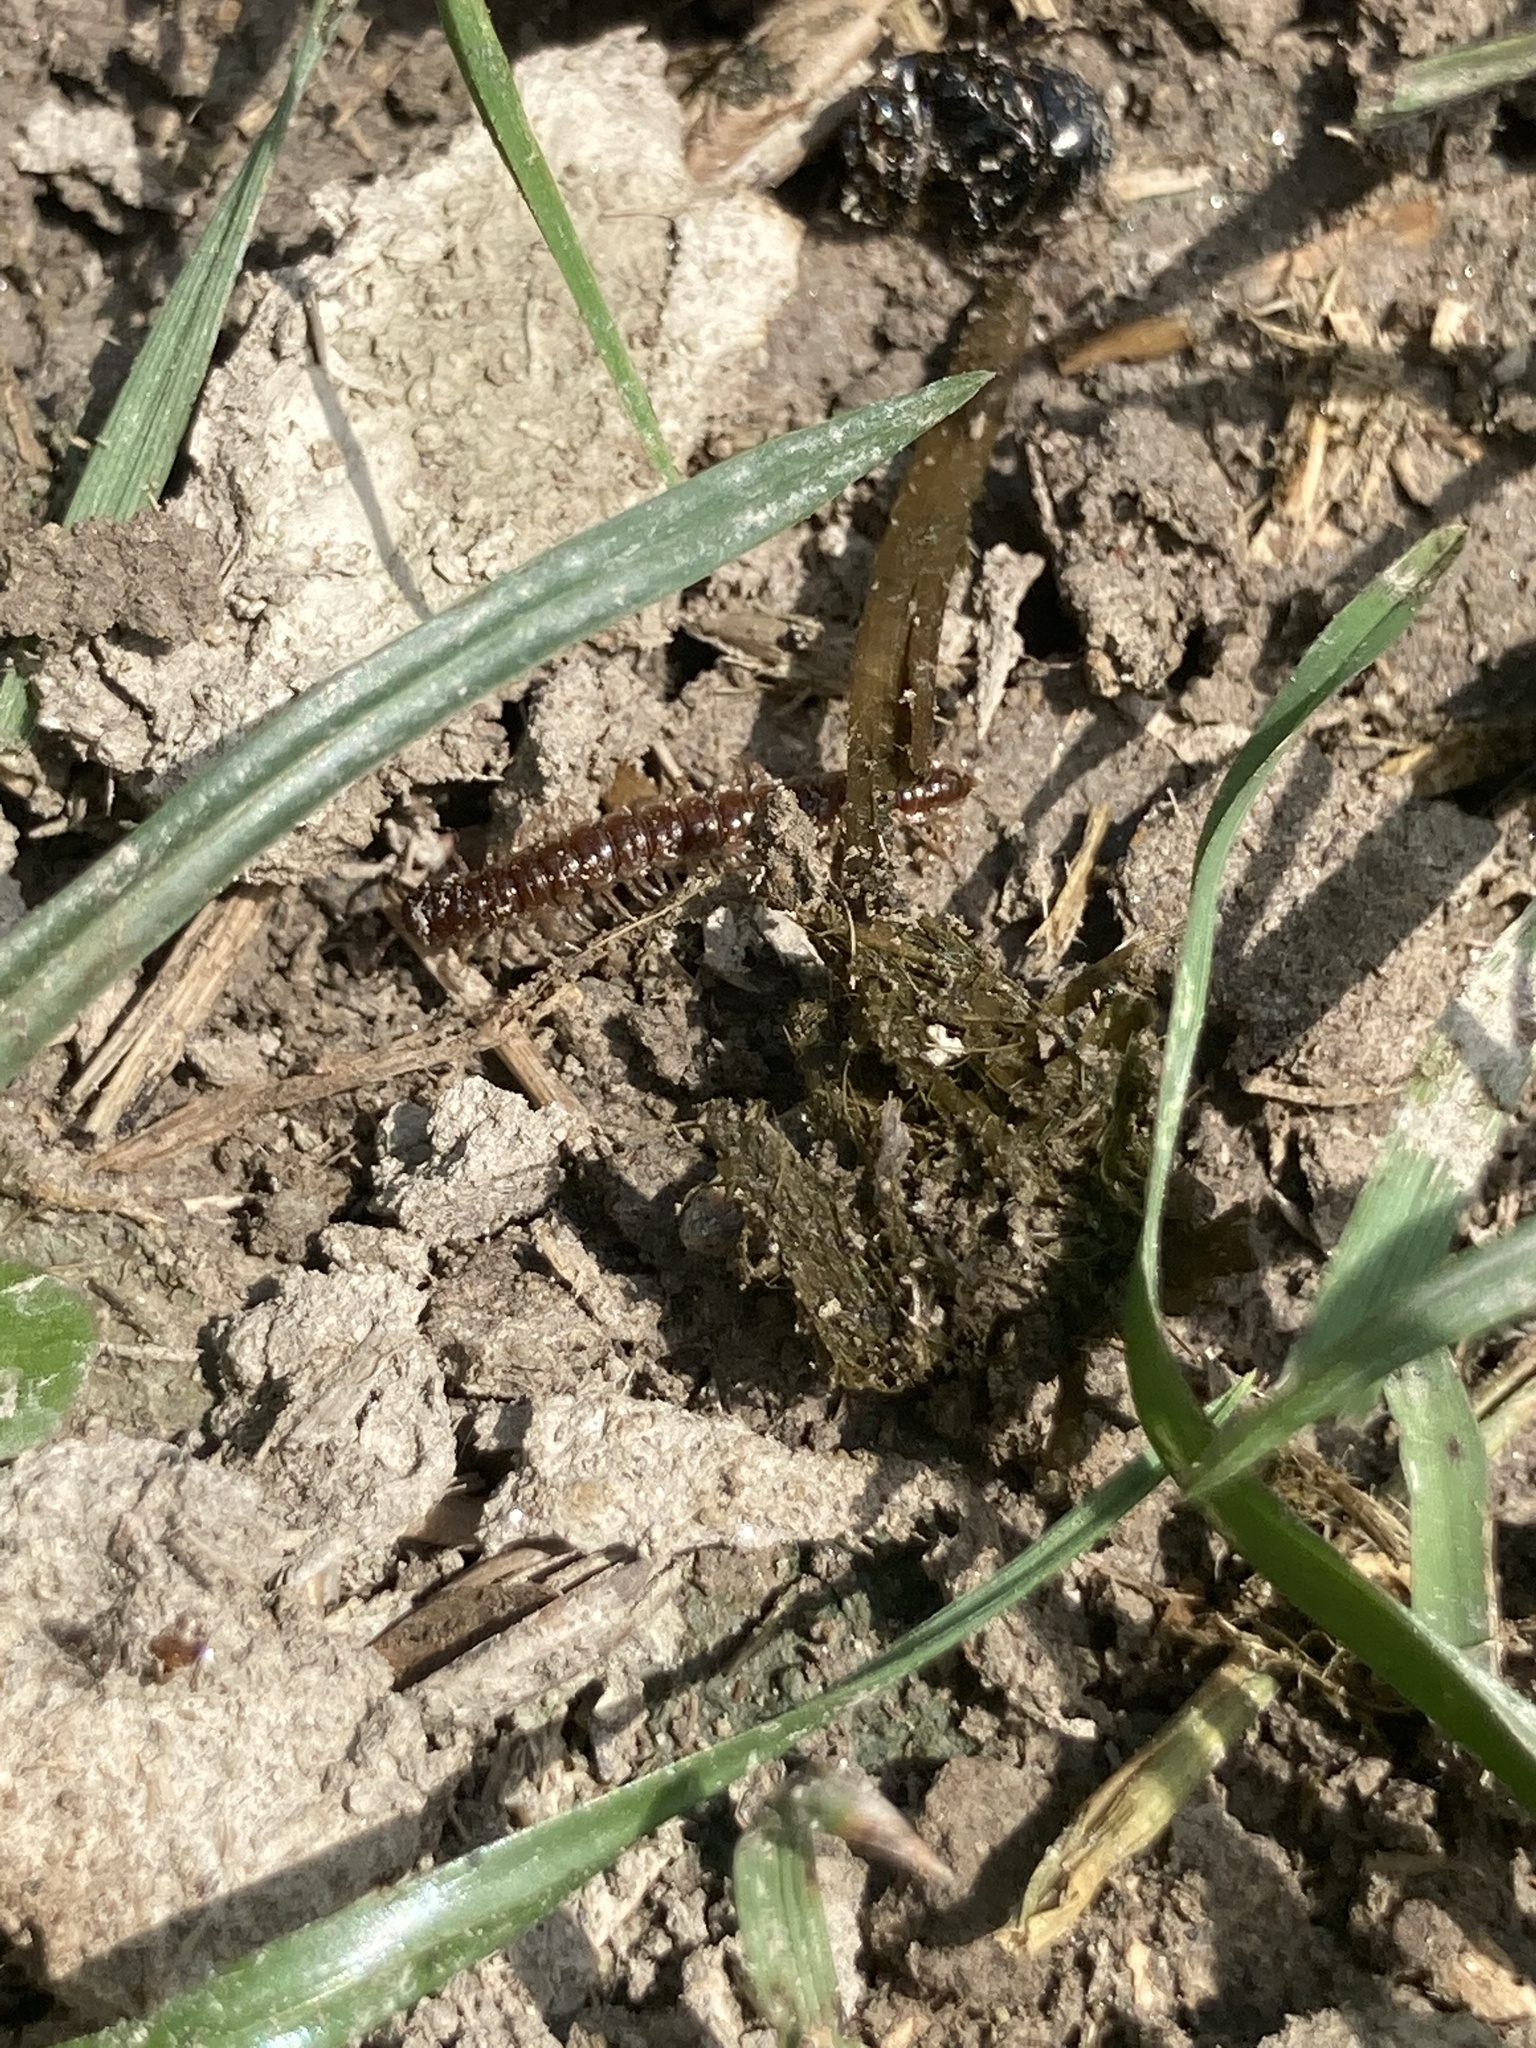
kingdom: Animalia
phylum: Arthropoda
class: Diplopoda
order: Polydesmida
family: Paradoxosomatidae
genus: Oxidus
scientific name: Oxidus gracilis
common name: Greenhouse millipede
